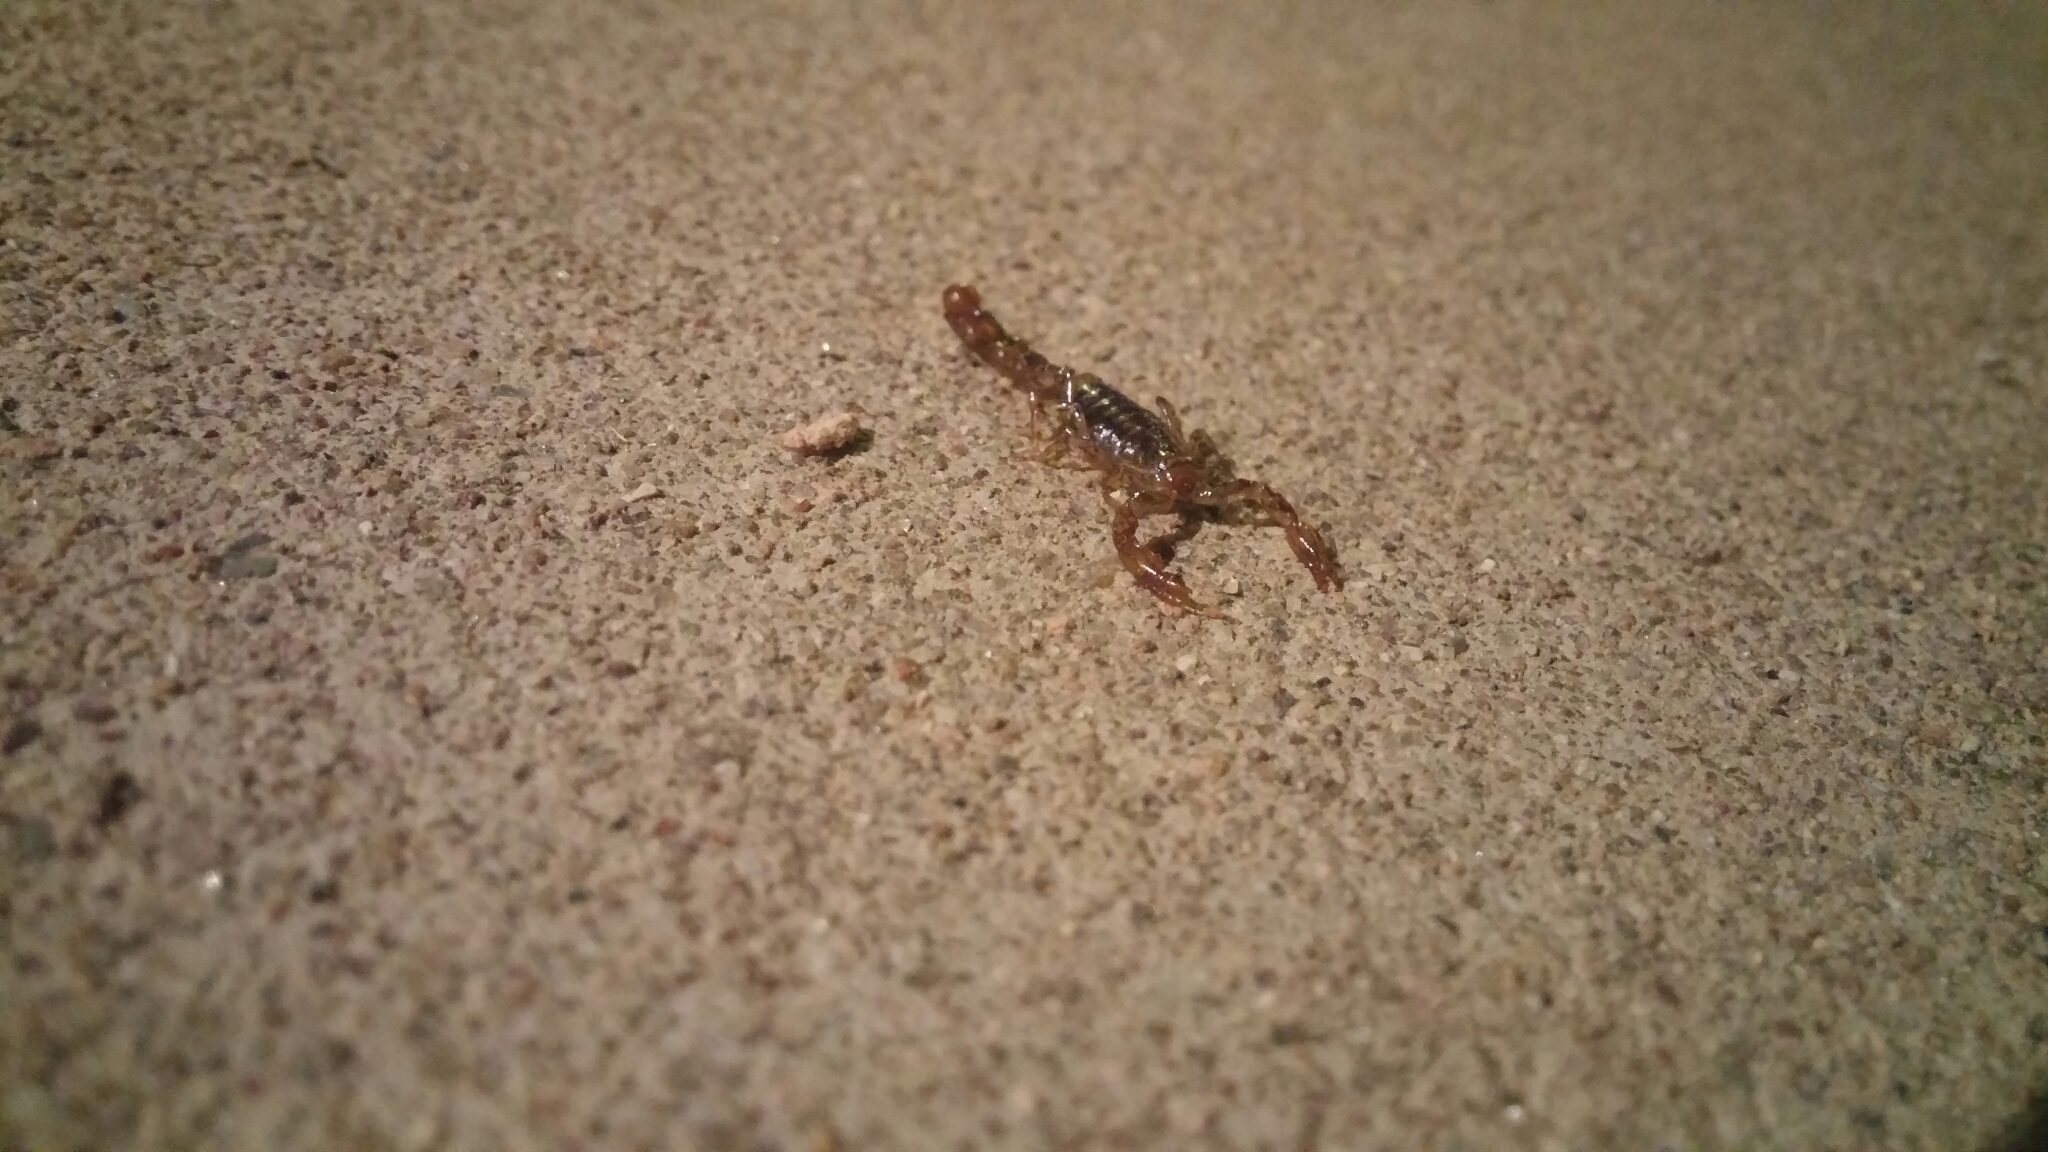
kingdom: Animalia
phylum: Arthropoda
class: Arachnida
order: Scorpiones
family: Superstitioniidae
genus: Superstitionia
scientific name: Superstitionia donensis
